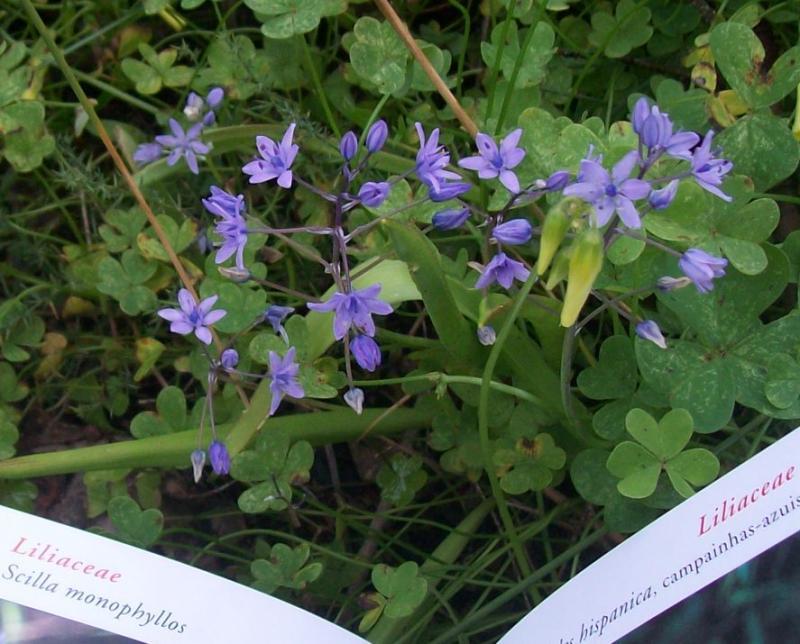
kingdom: Plantae
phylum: Tracheophyta
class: Liliopsida
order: Asparagales
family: Asparagaceae
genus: Scilla
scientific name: Scilla monophyllos
